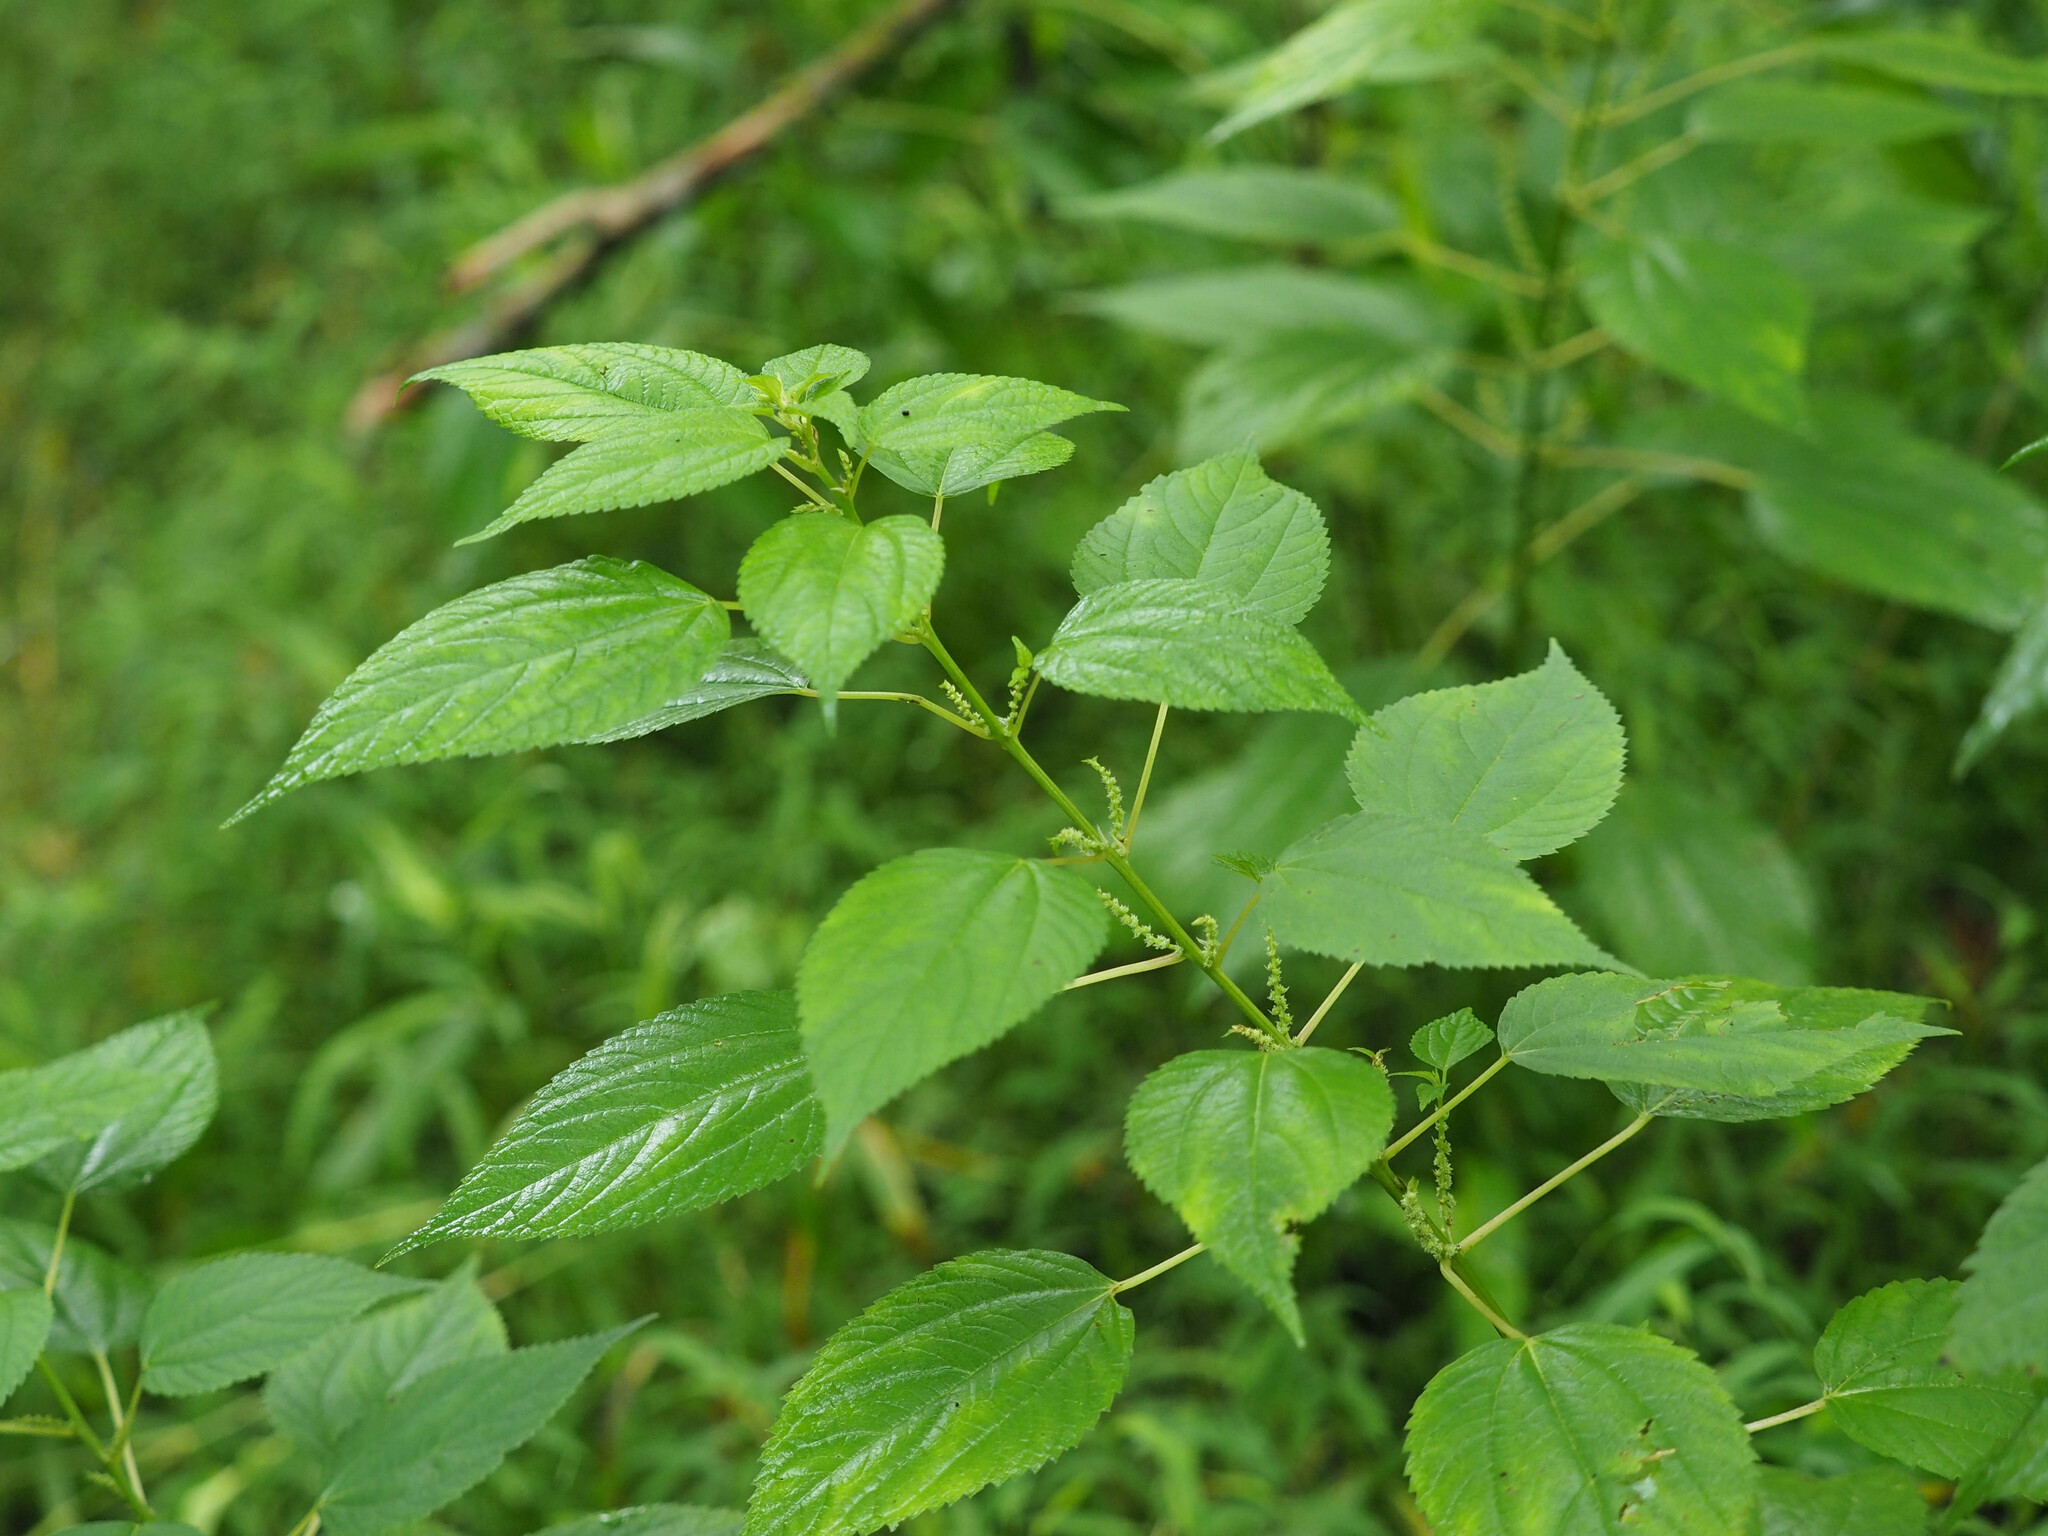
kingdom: Plantae
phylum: Tracheophyta
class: Magnoliopsida
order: Rosales
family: Urticaceae
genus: Boehmeria
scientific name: Boehmeria cylindrica
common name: Bog-hemp
